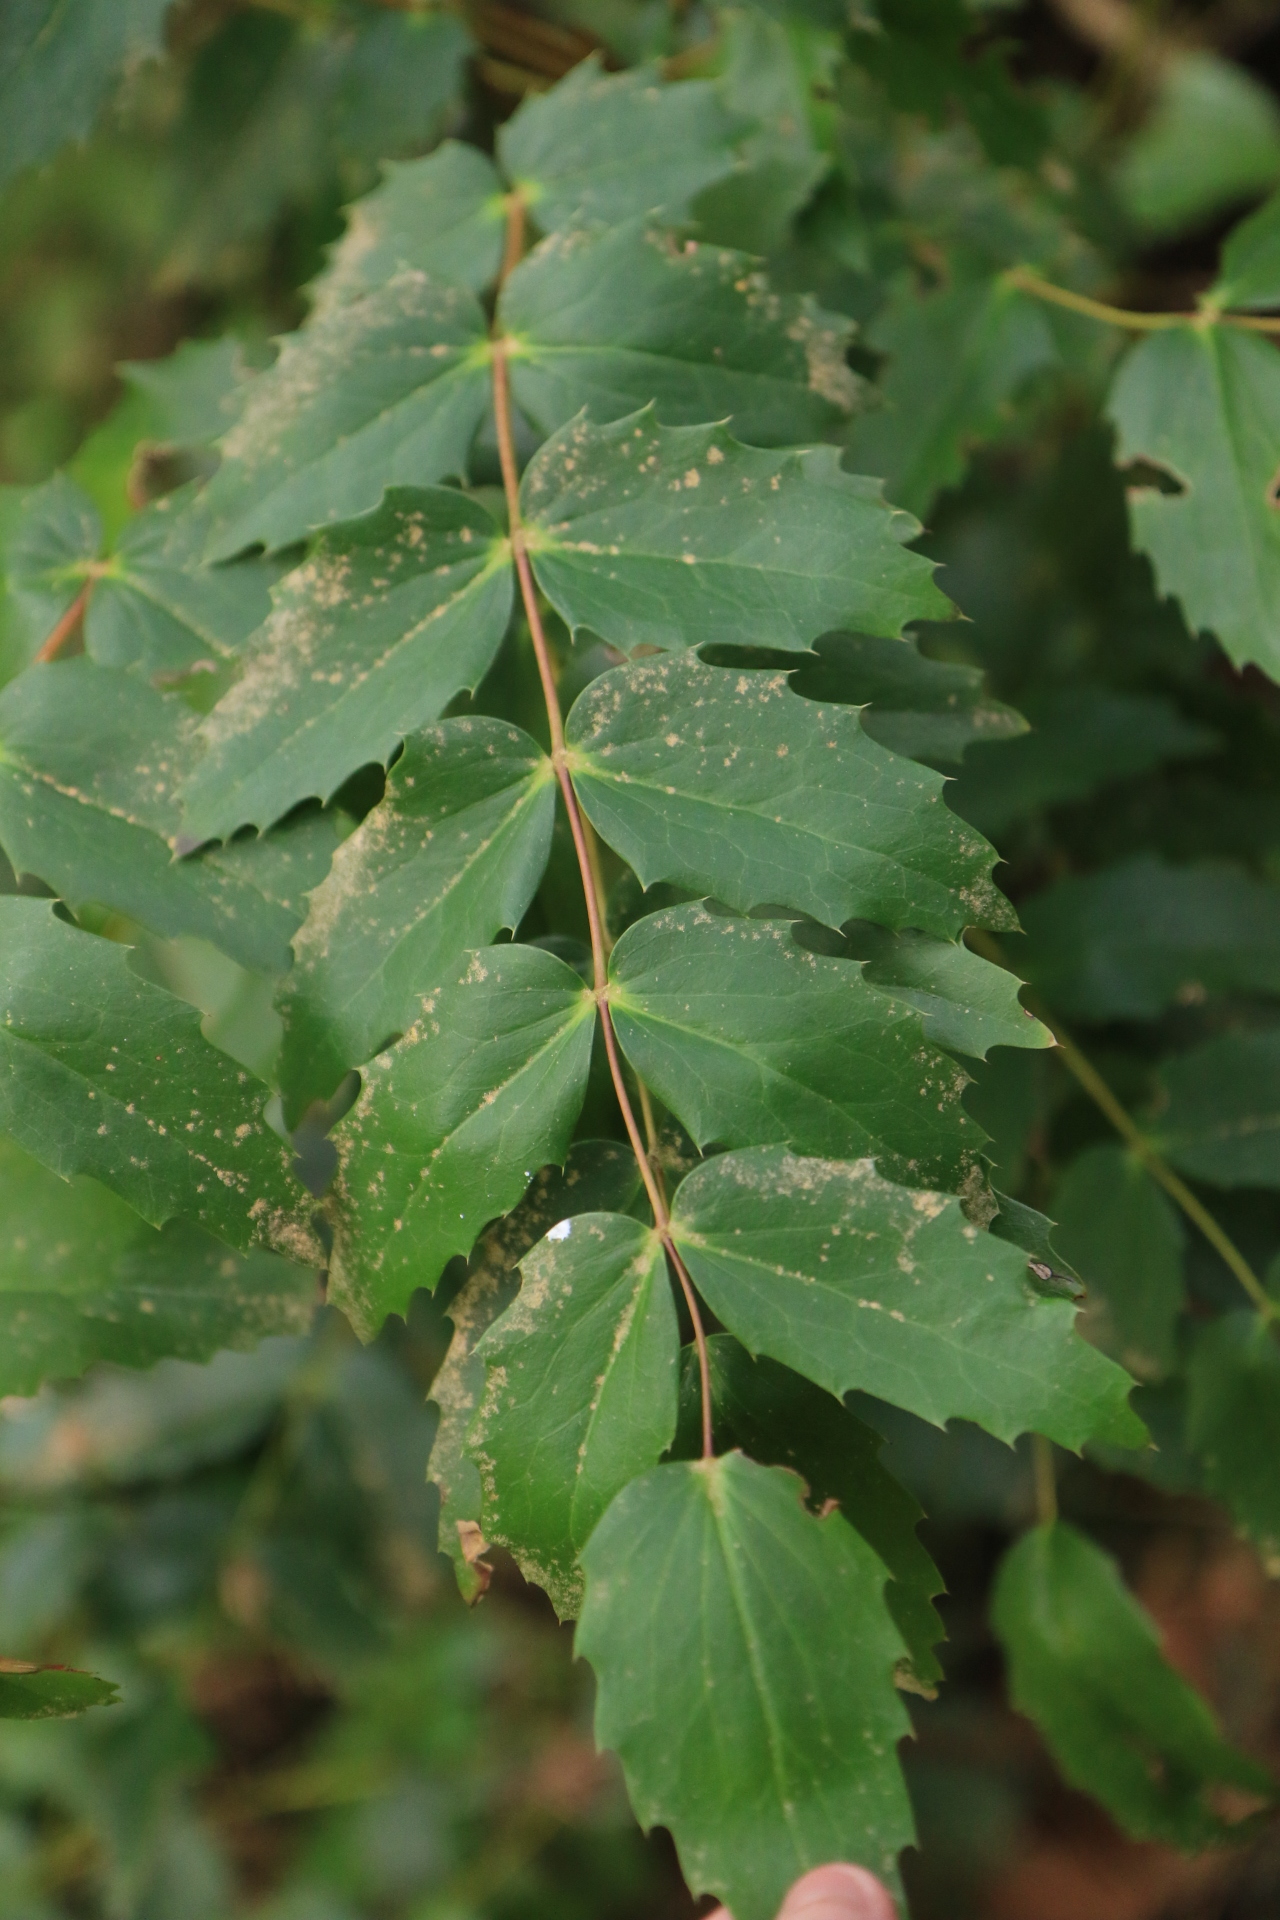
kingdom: Plantae
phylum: Tracheophyta
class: Magnoliopsida
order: Ranunculales
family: Berberidaceae
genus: Mahonia
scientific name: Mahonia nervosa
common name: Cascade oregon-grape
